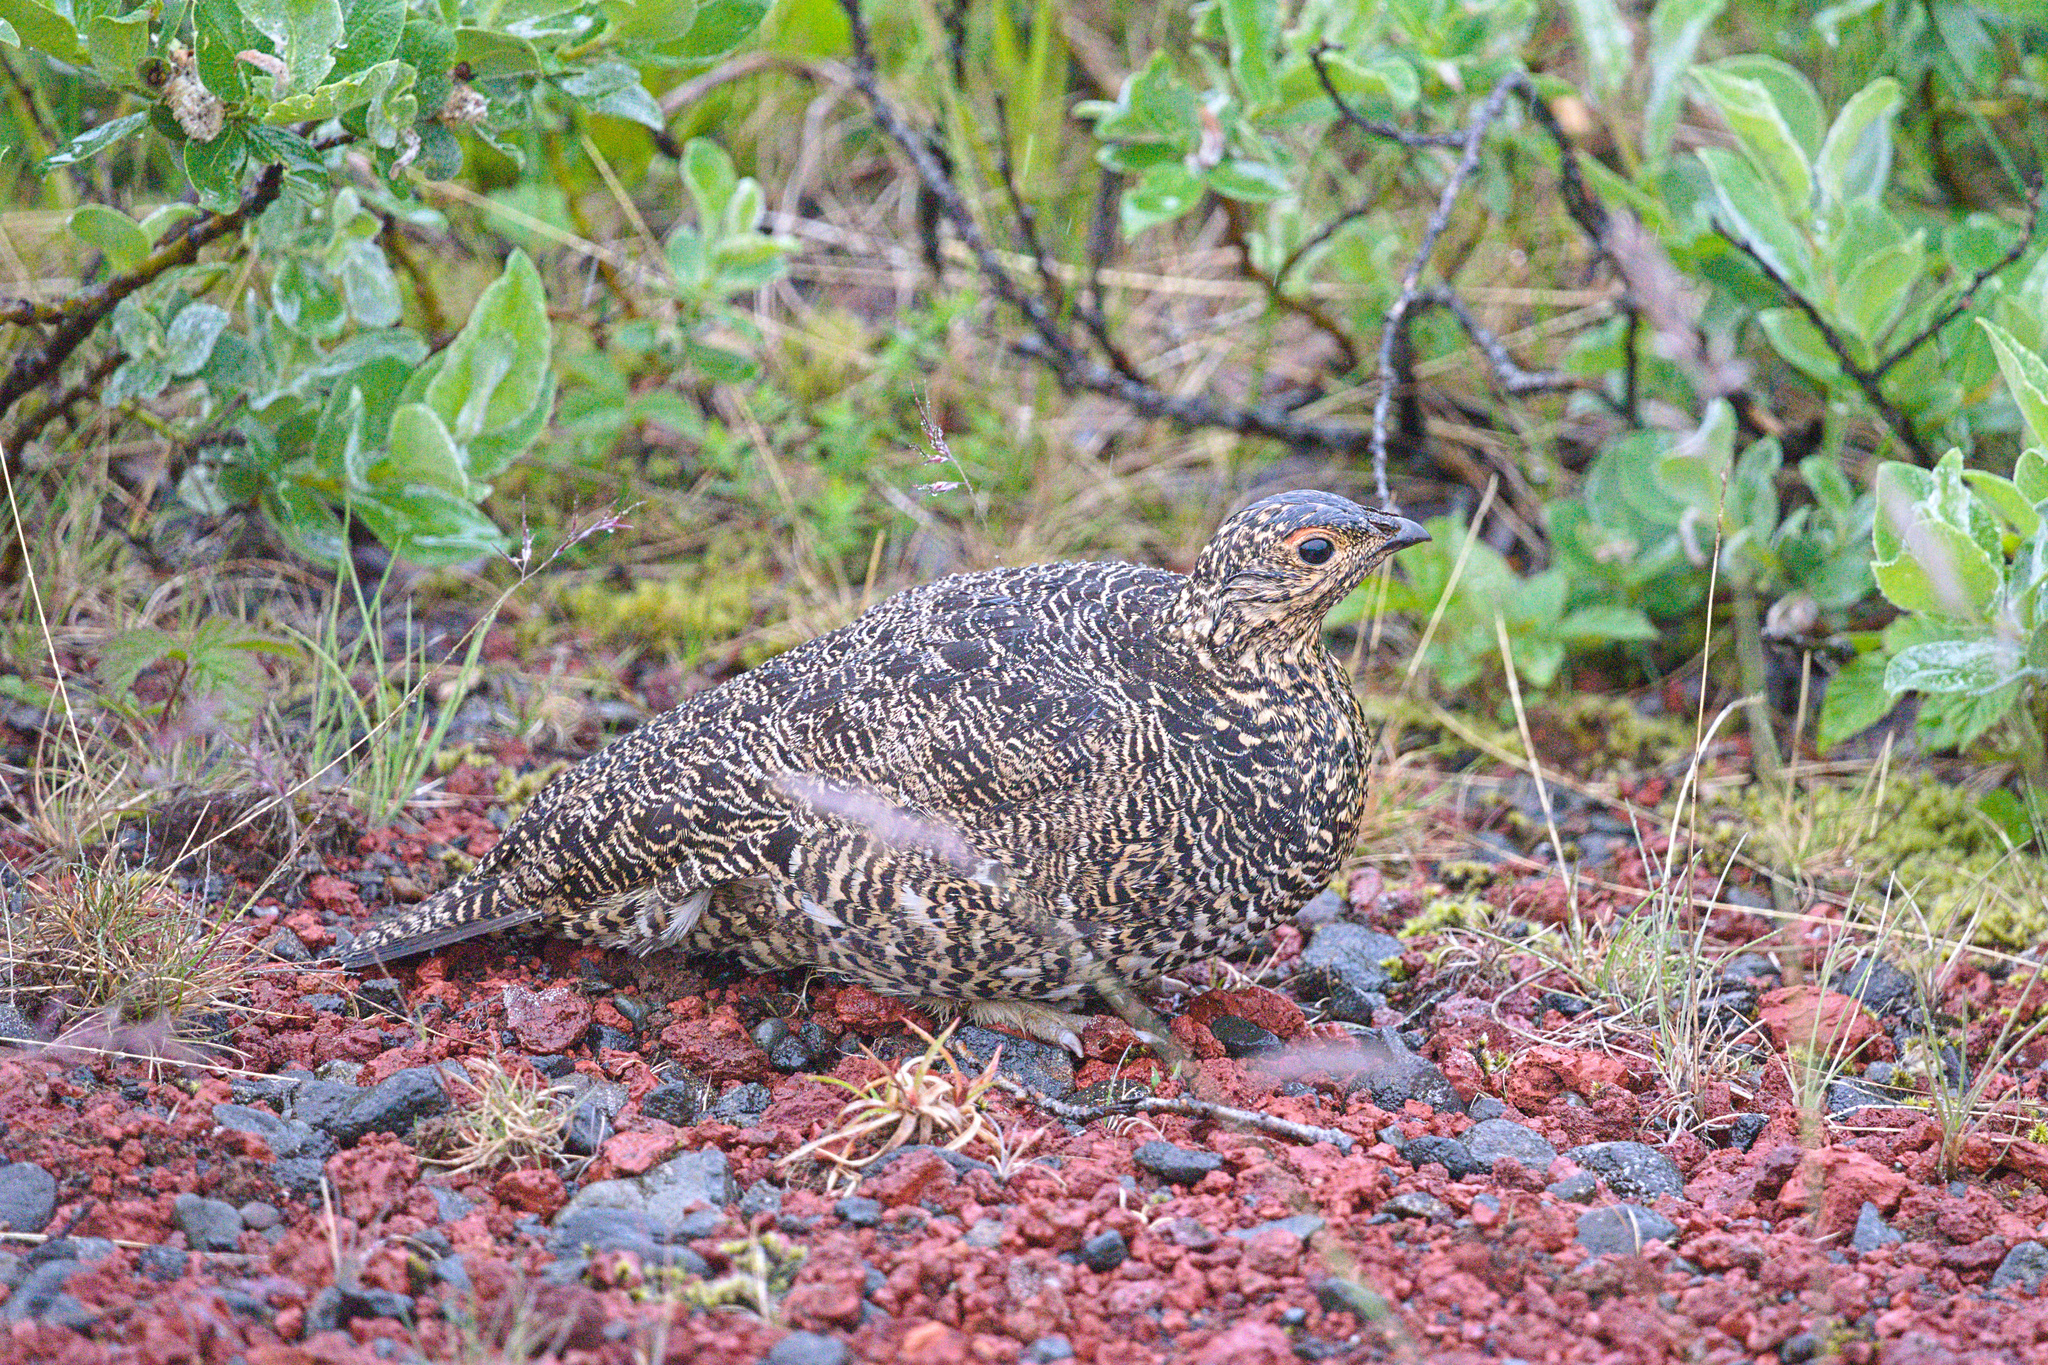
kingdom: Animalia
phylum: Chordata
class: Aves
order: Galliformes
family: Phasianidae
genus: Lagopus
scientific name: Lagopus muta
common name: Rock ptarmigan
